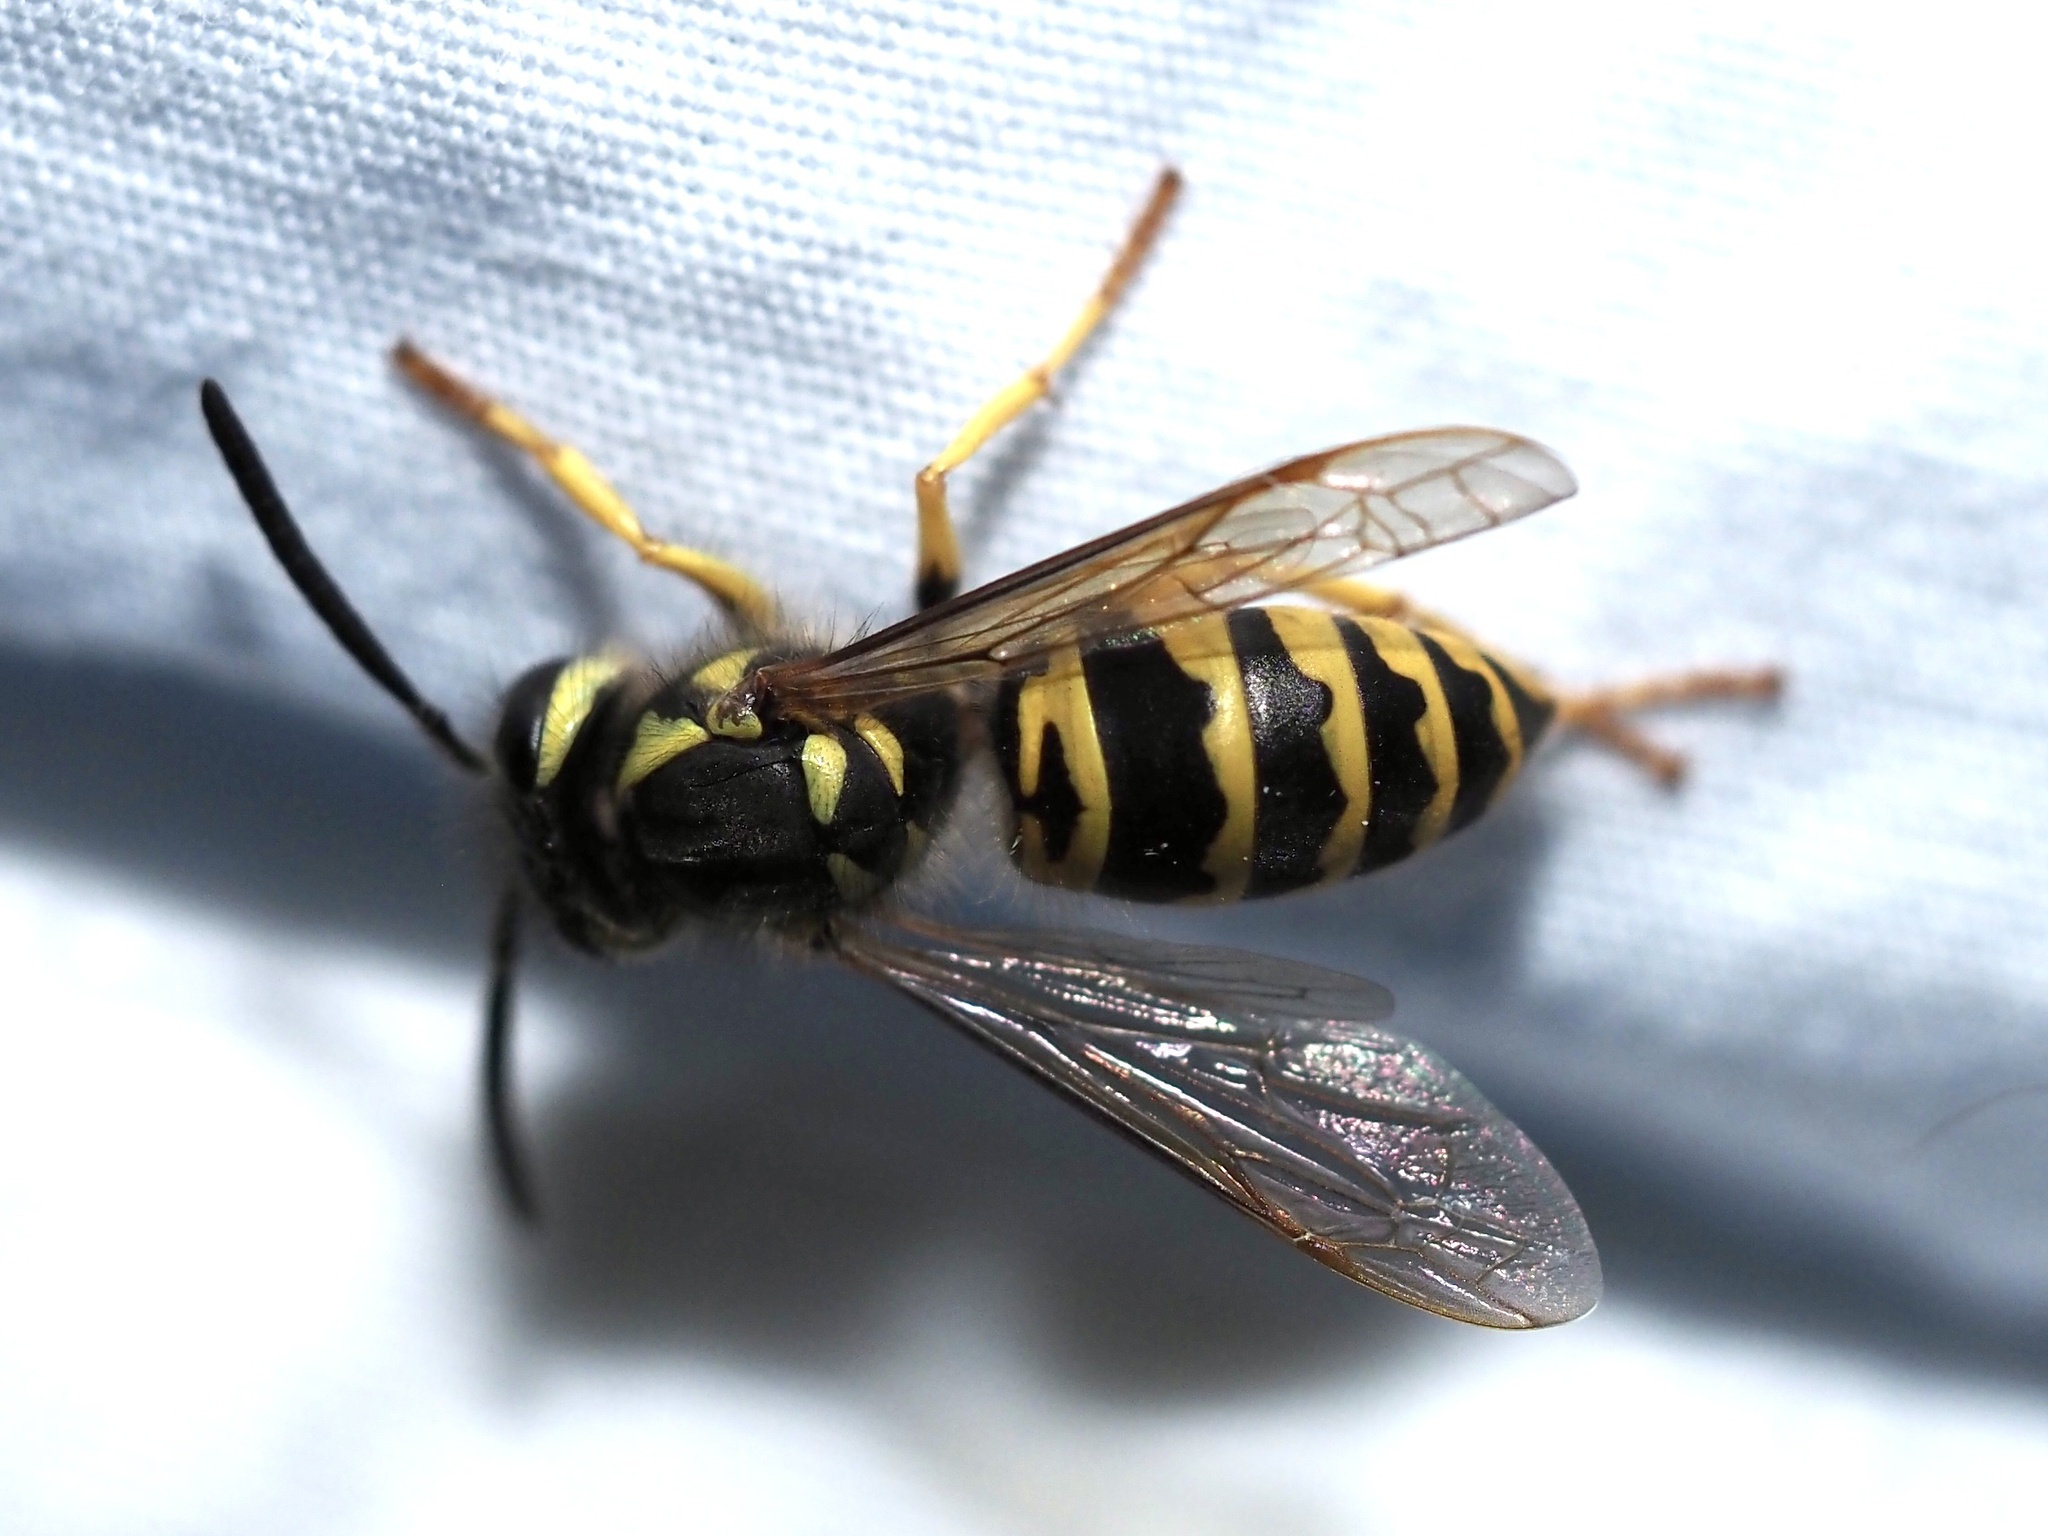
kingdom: Animalia
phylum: Arthropoda
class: Insecta
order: Hymenoptera
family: Vespidae
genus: Vespula
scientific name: Vespula maculifrons
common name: Eastern yellowjacket
